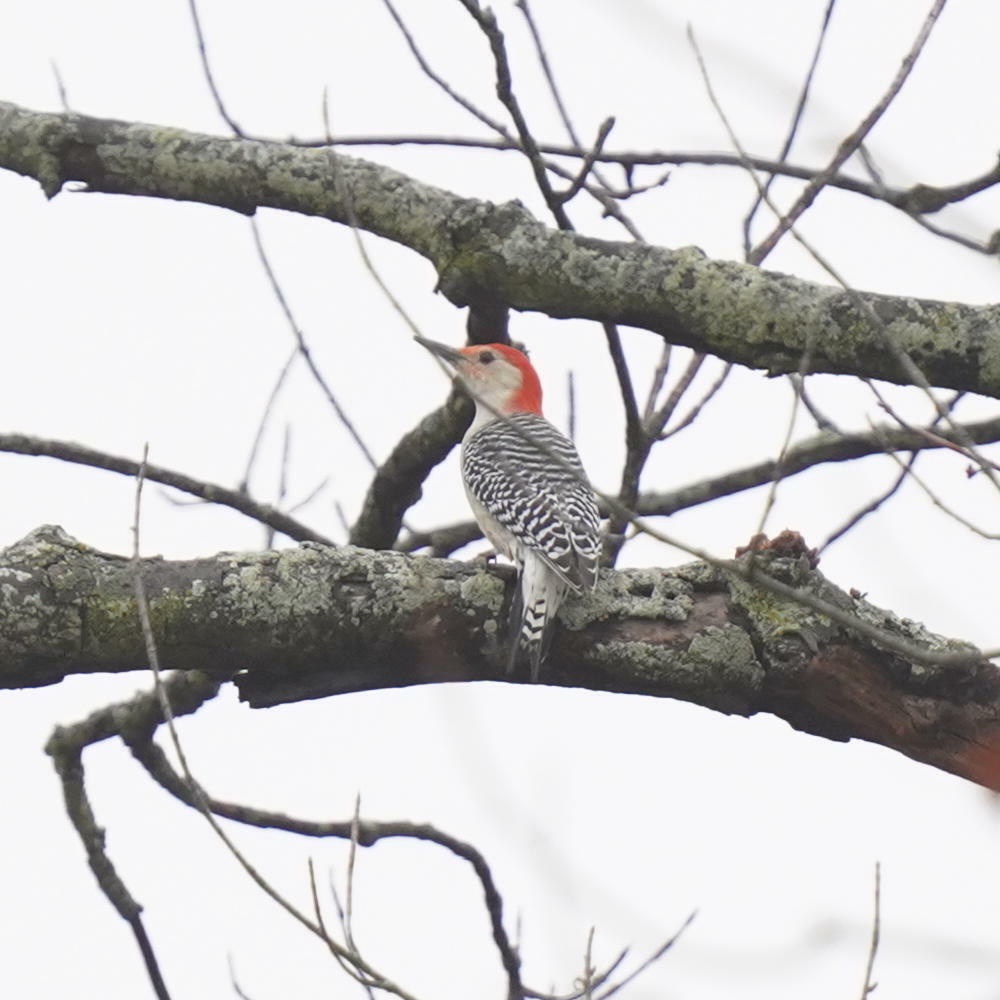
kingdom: Animalia
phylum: Chordata
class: Aves
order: Piciformes
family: Picidae
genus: Melanerpes
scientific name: Melanerpes carolinus
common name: Red-bellied woodpecker
